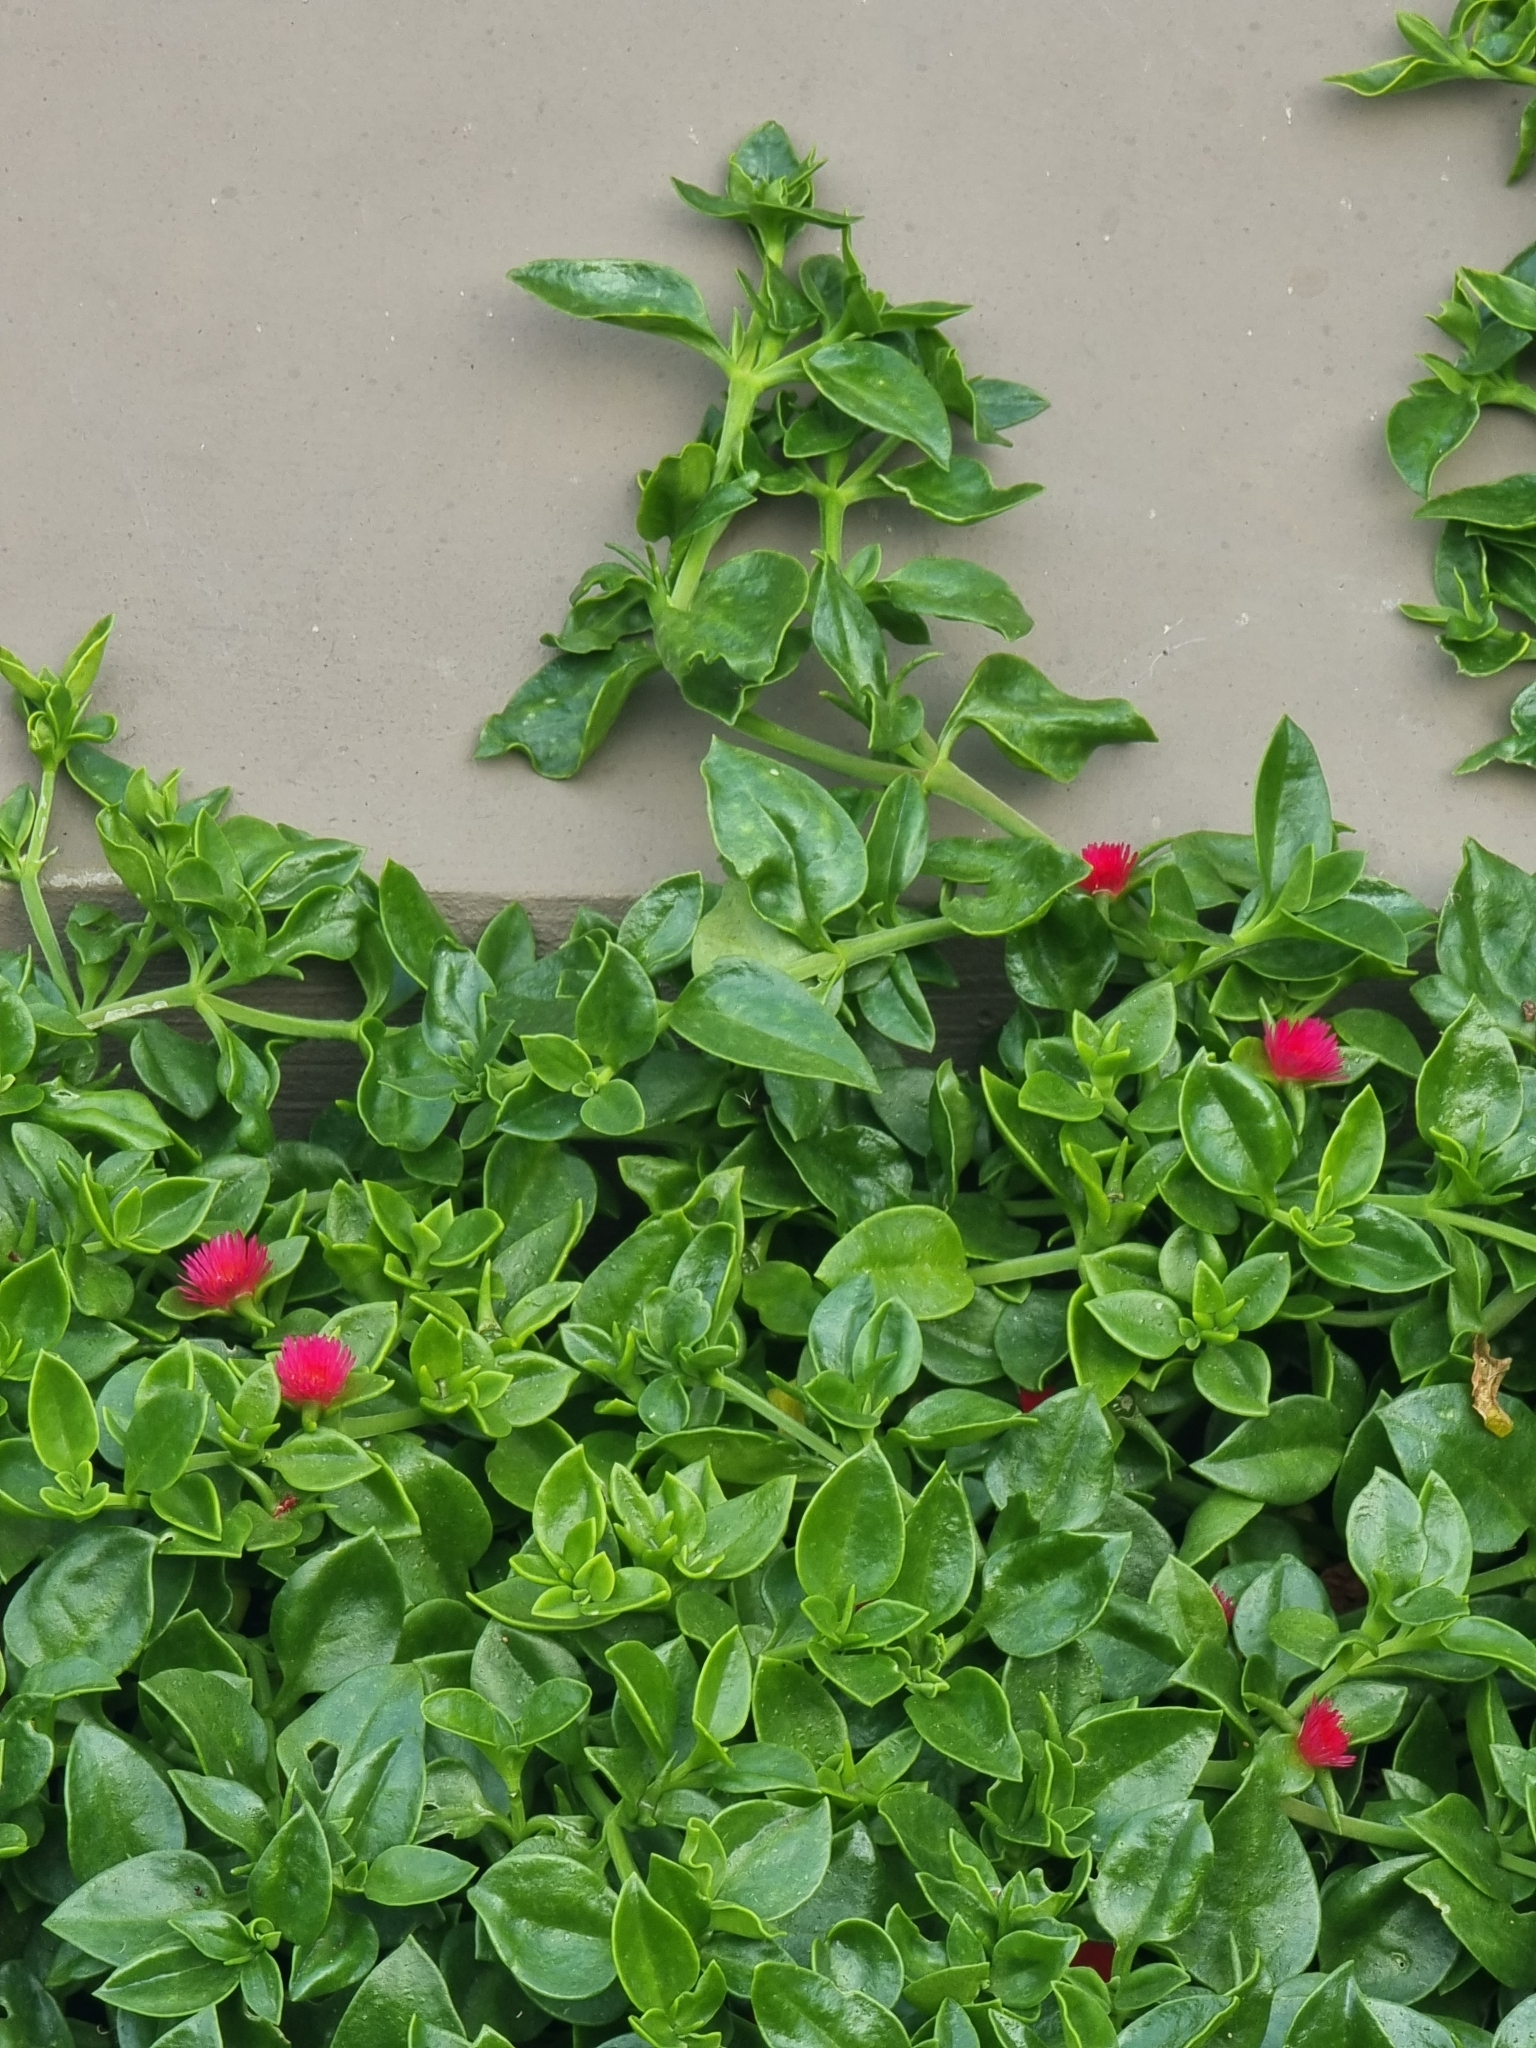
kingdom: Plantae
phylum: Tracheophyta
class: Magnoliopsida
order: Caryophyllales
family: Aizoaceae
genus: Mesembryanthemum
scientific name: Mesembryanthemum cordifolium
